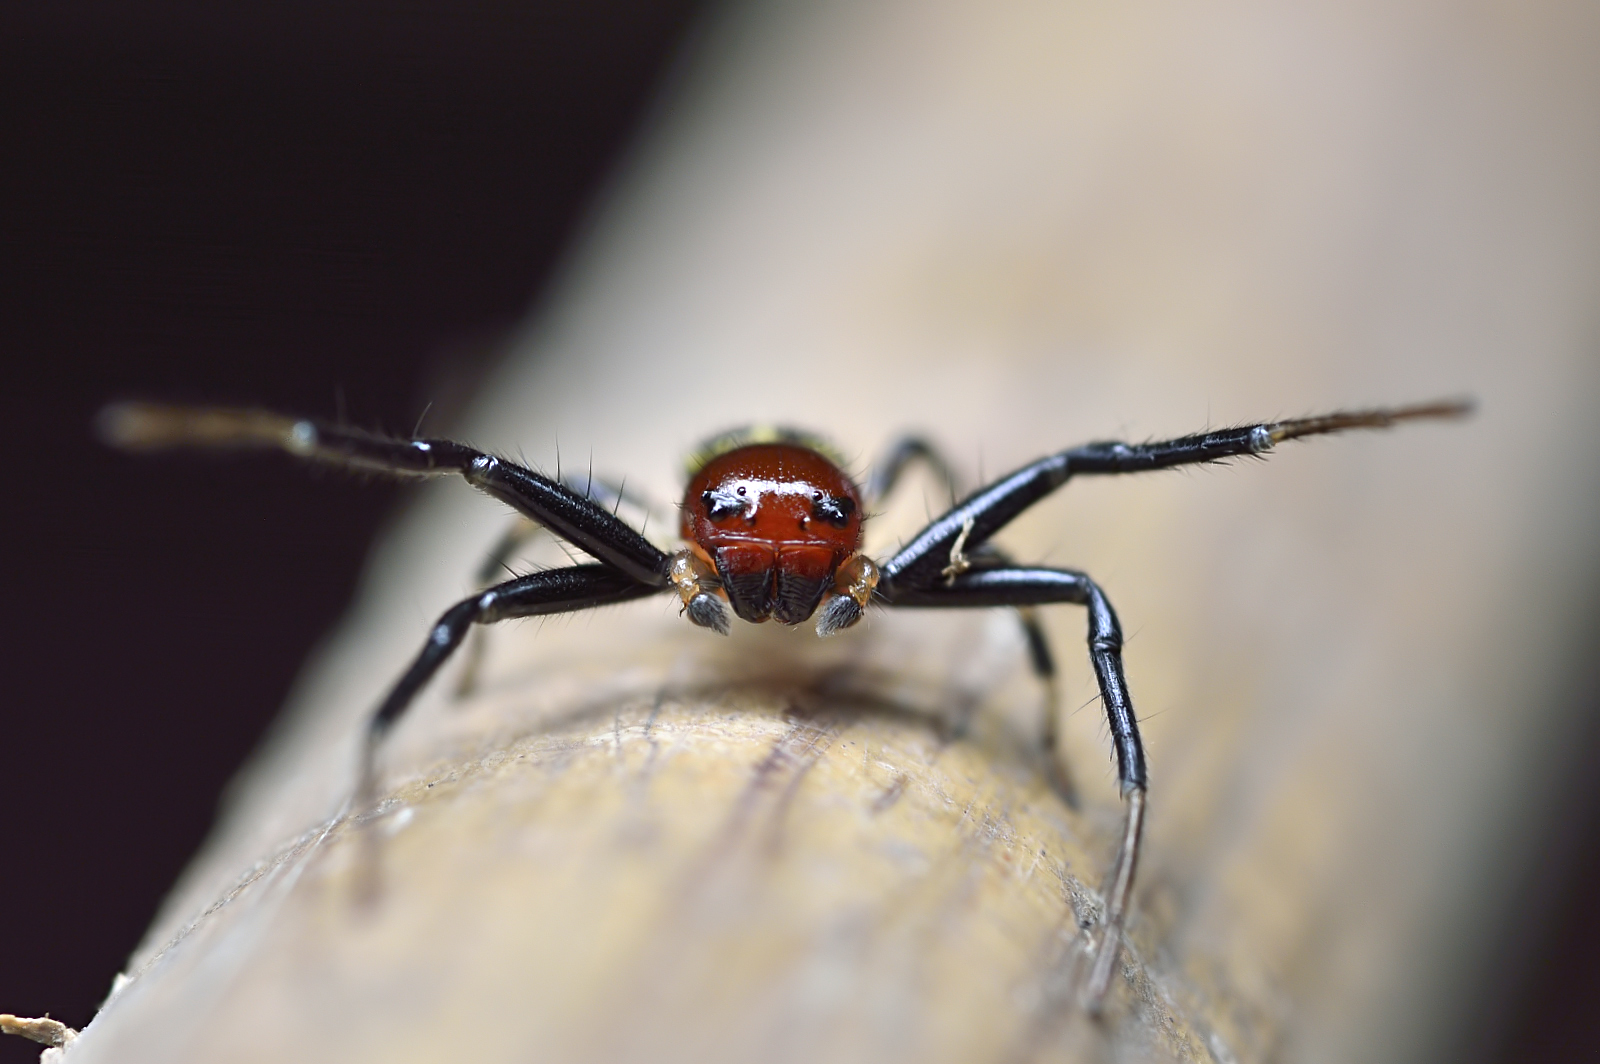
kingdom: Animalia
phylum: Arthropoda
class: Arachnida
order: Araneae
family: Thomisidae
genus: Camaricus
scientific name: Camaricus formosus
